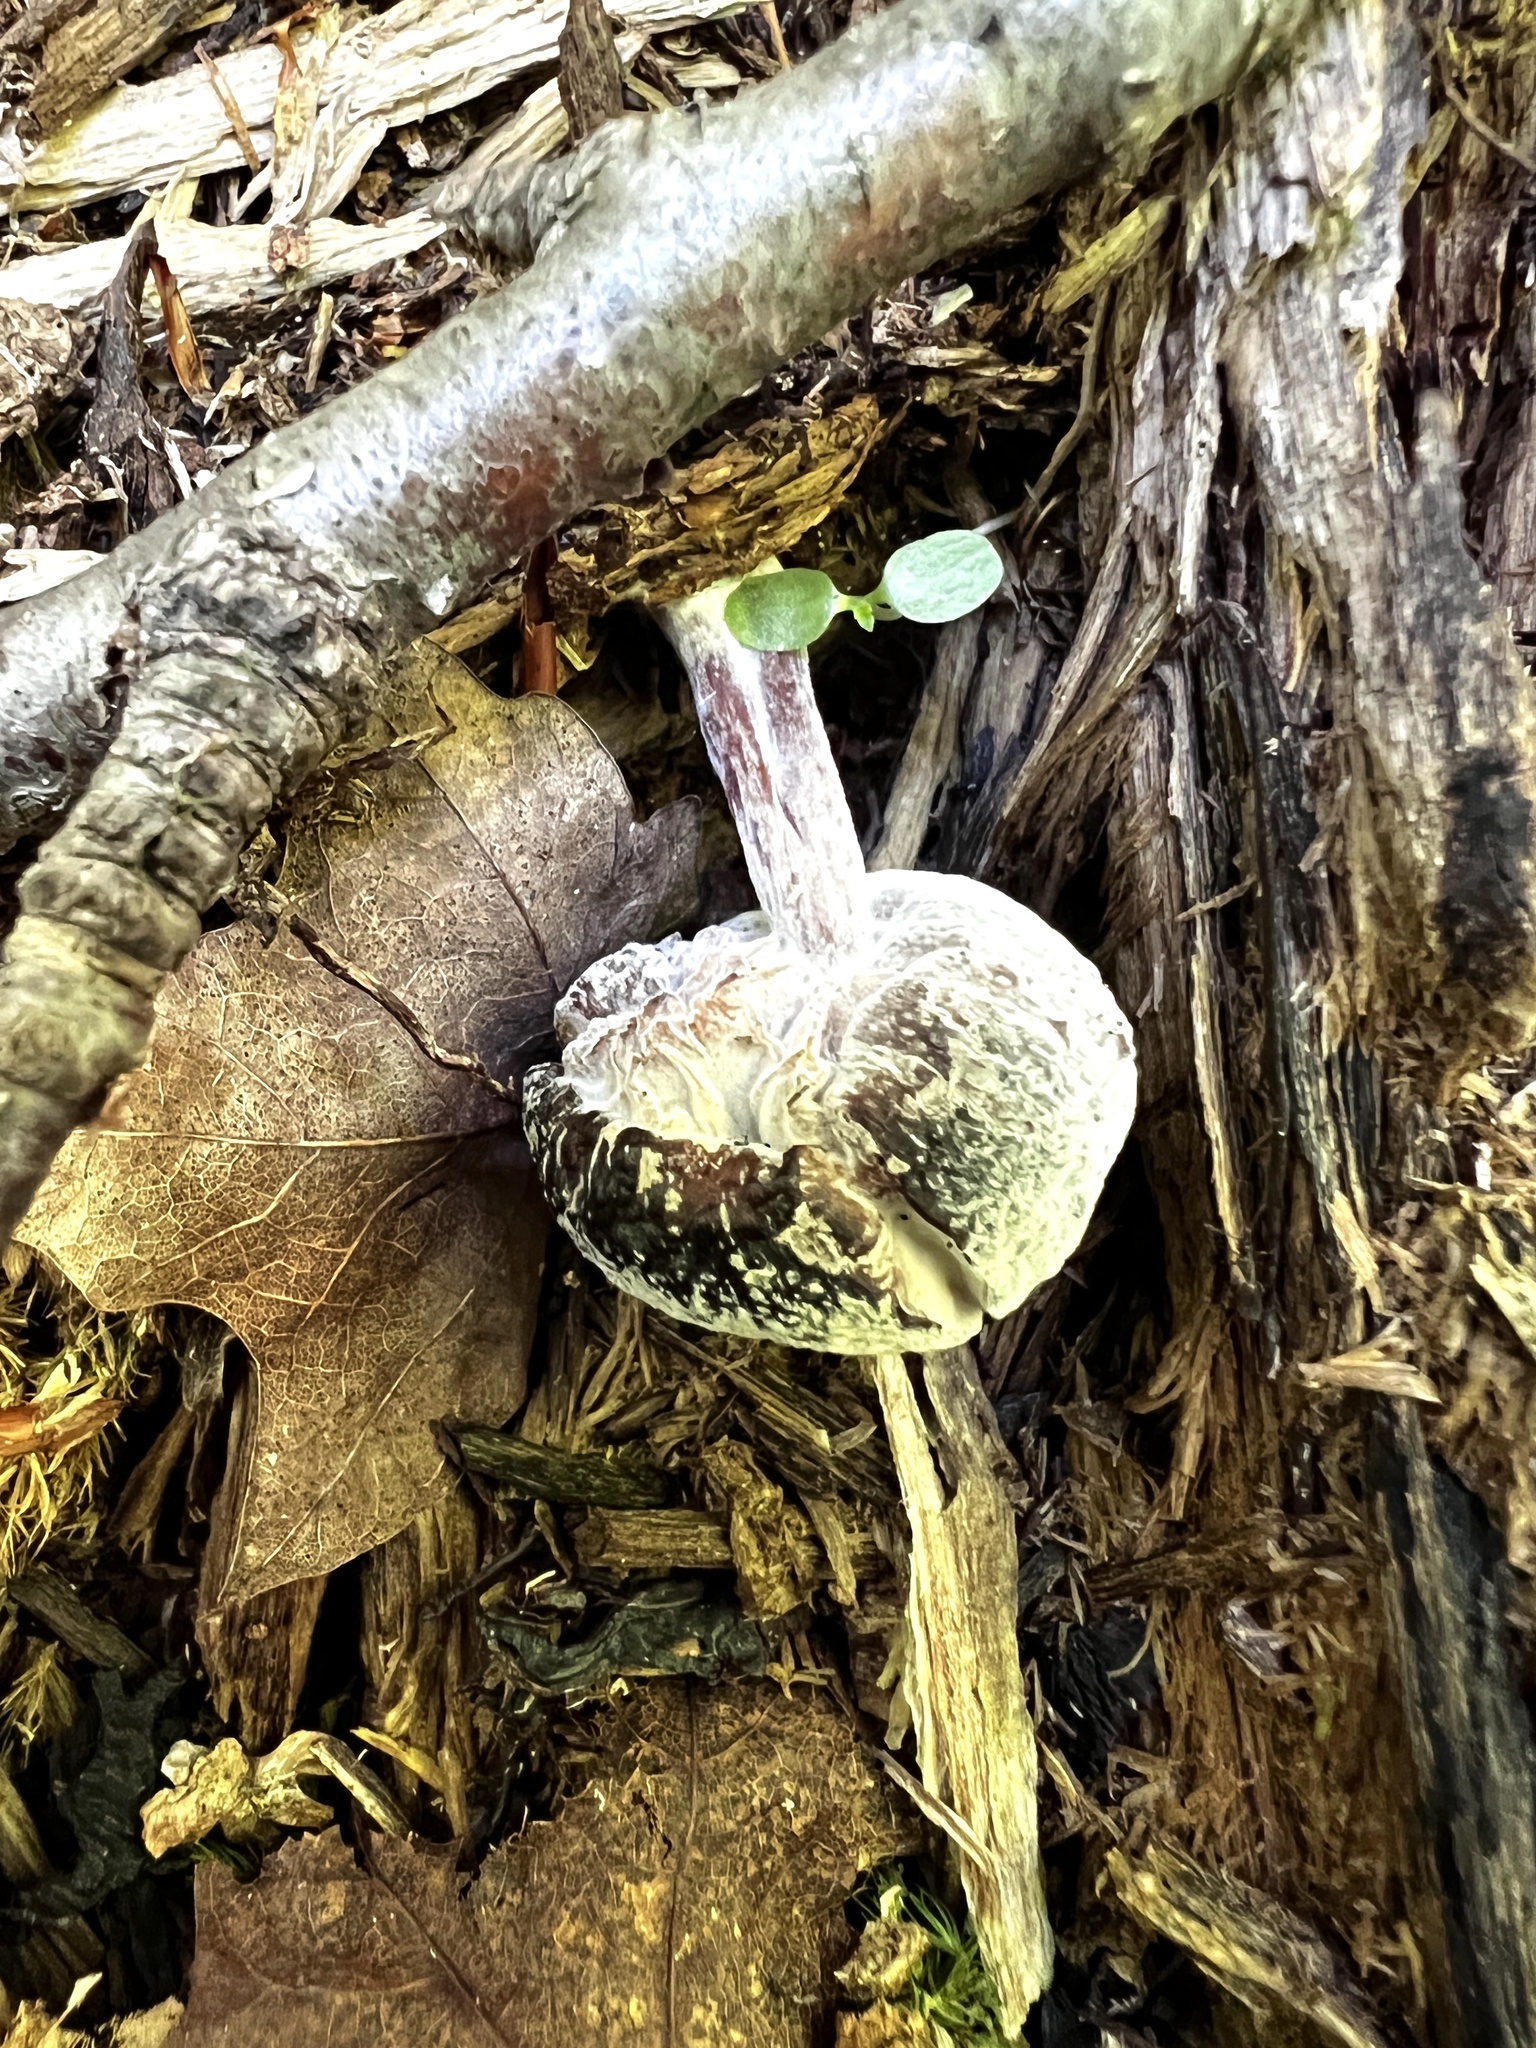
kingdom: Fungi
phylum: Ascomycota
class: Sordariomycetes
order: Hypocreales
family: Hypocreaceae
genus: Hypomyces
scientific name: Hypomyces porphyreus
